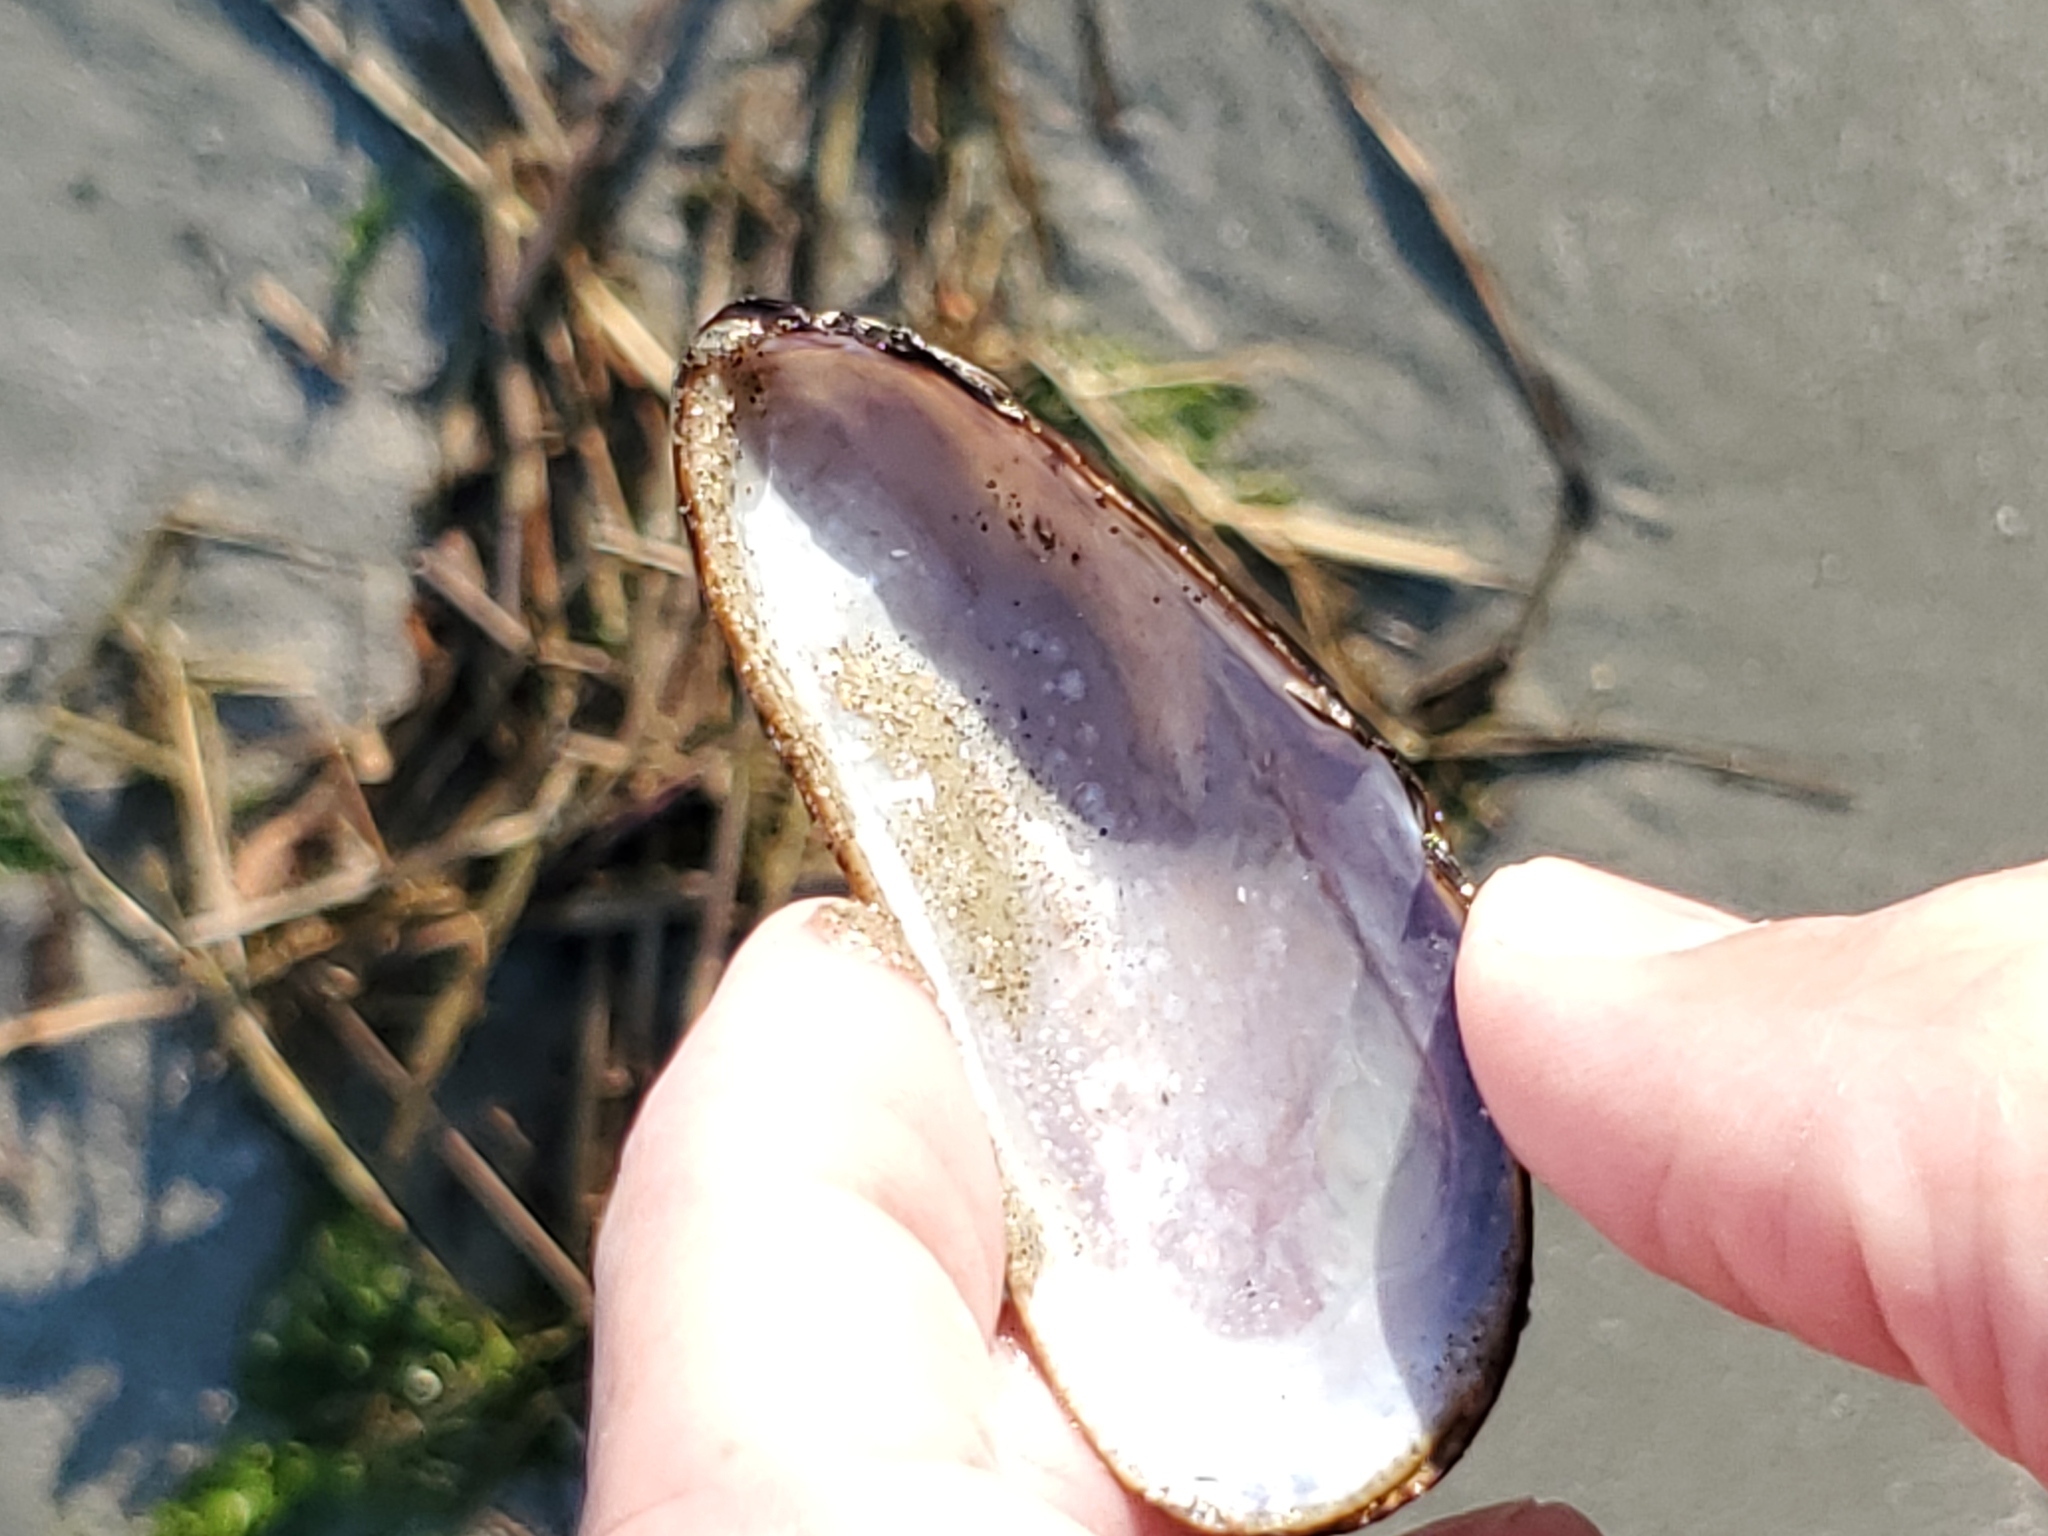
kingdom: Animalia
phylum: Mollusca
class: Bivalvia
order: Mytilida
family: Mytilidae
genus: Geukensia
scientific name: Geukensia demissa
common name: Ribbed mussel
